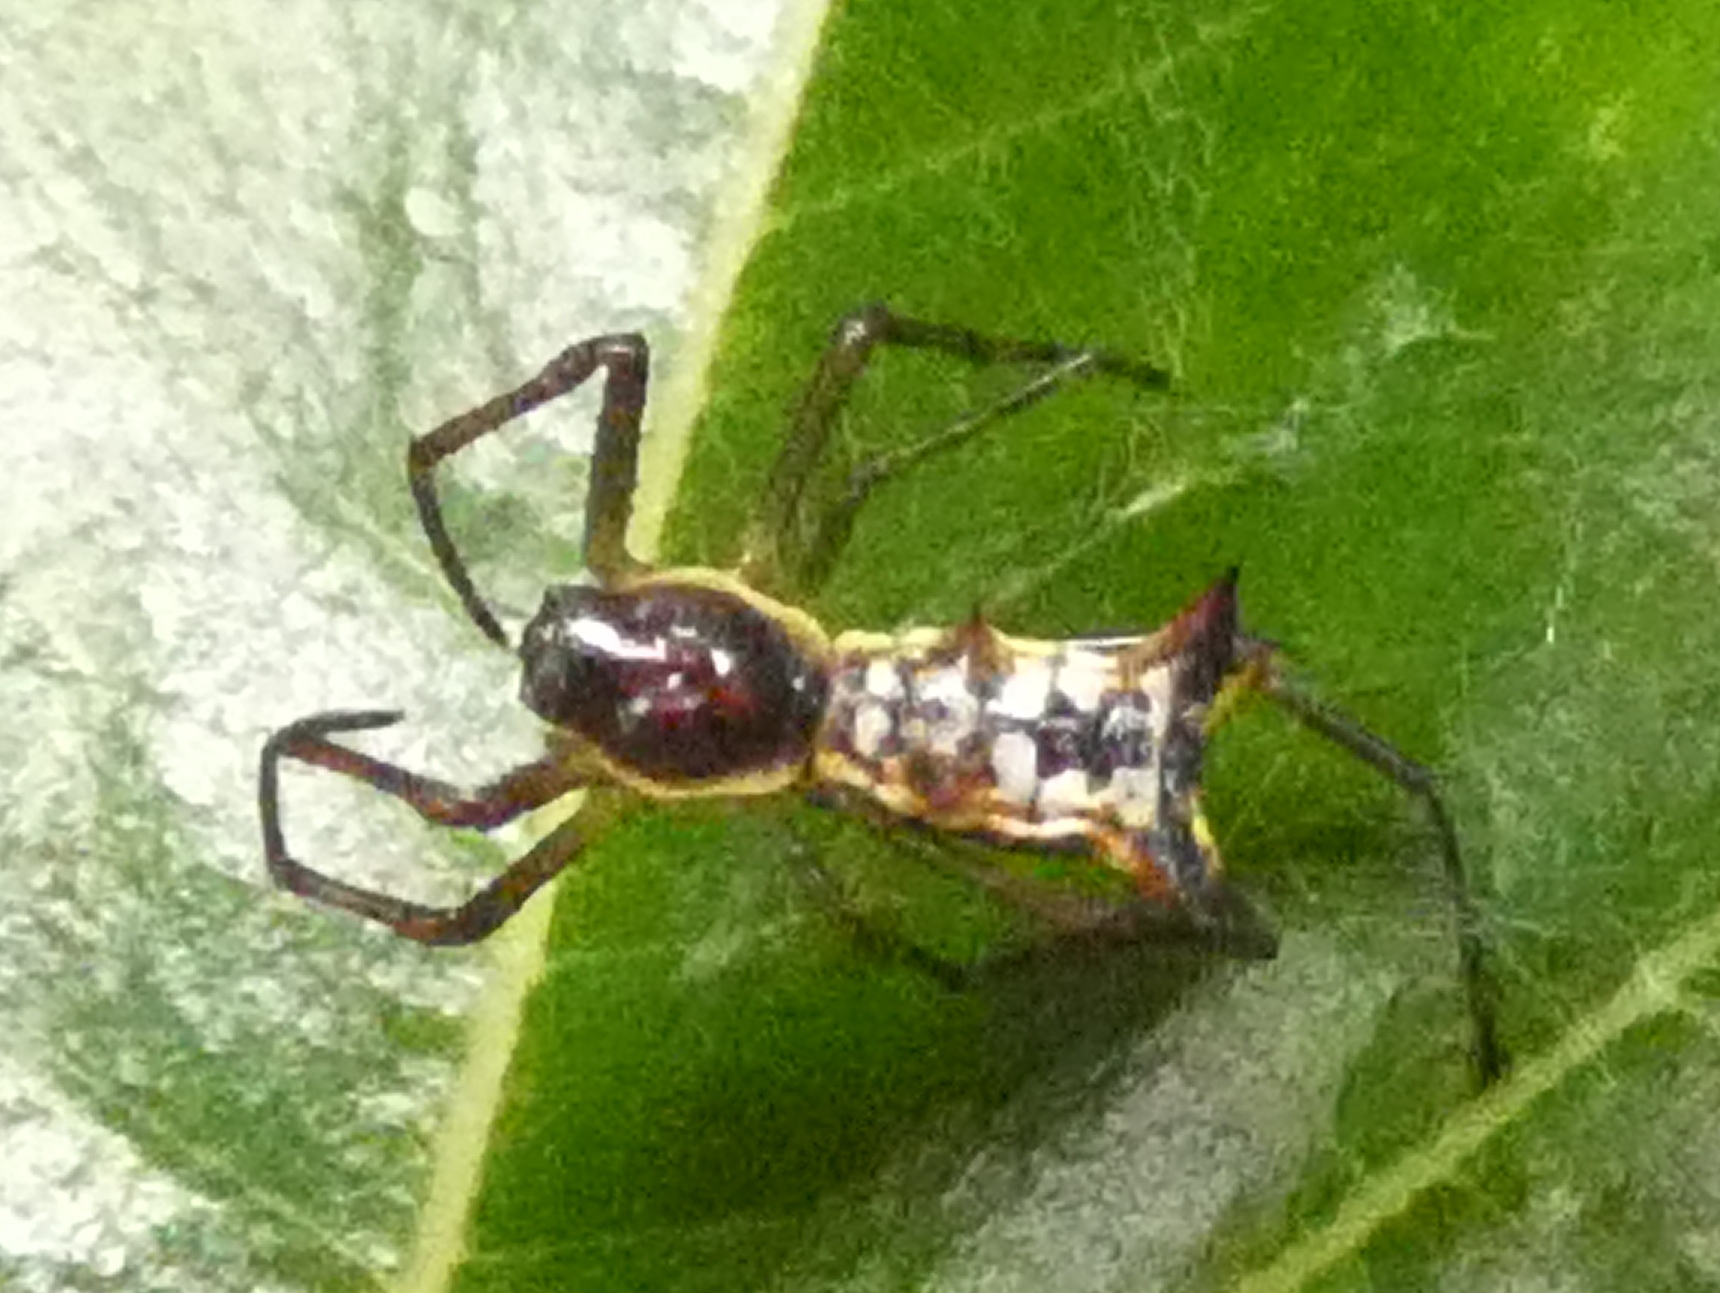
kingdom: Animalia
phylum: Arthropoda
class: Arachnida
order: Araneae
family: Araneidae
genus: Micrathena
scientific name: Micrathena fissispina
